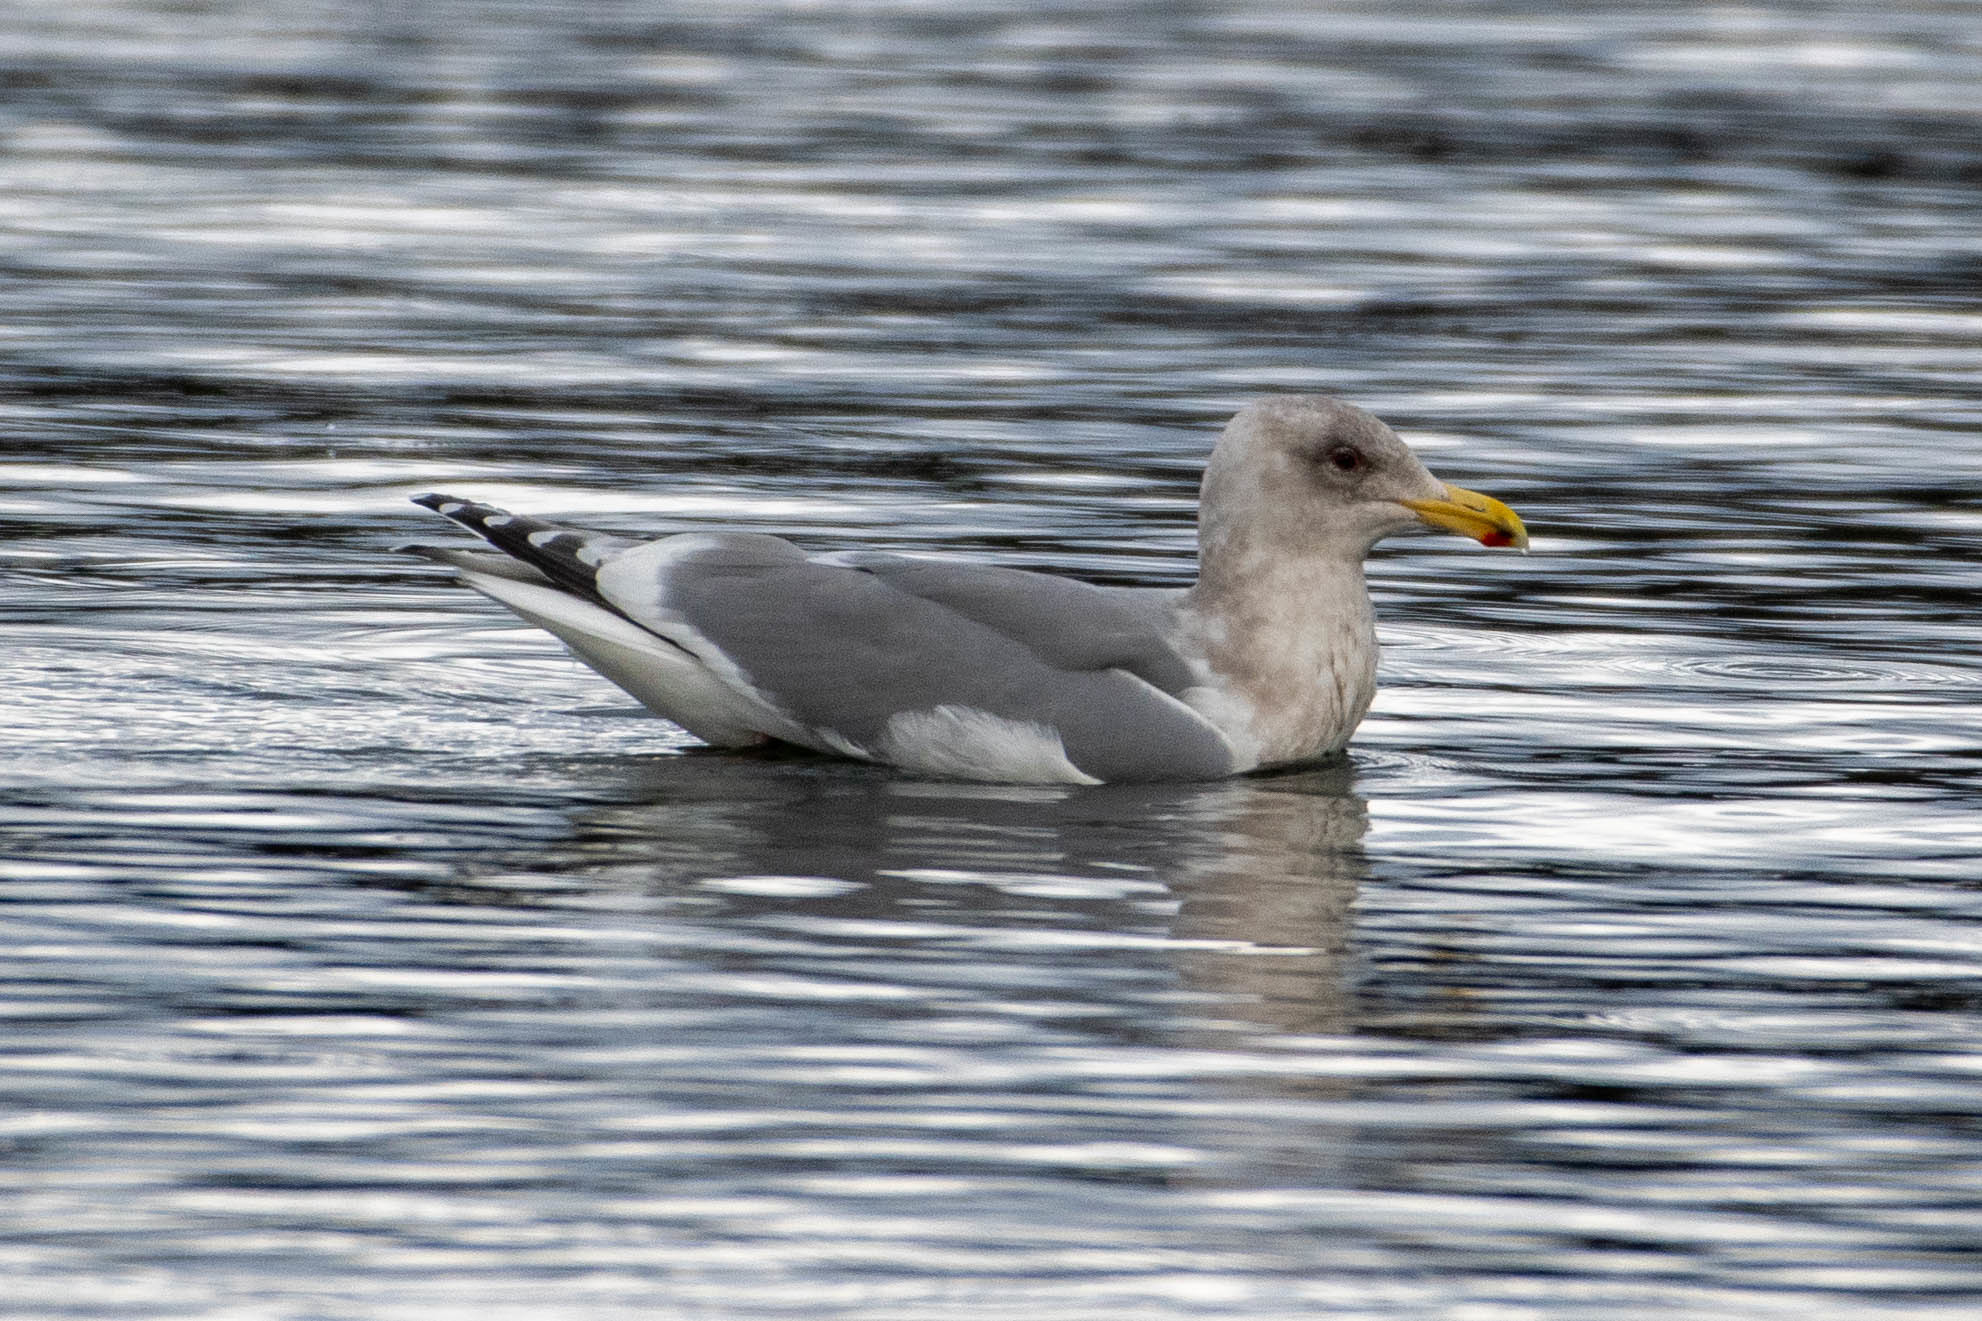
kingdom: Animalia
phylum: Chordata
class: Aves
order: Charadriiformes
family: Laridae
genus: Larus
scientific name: Larus
